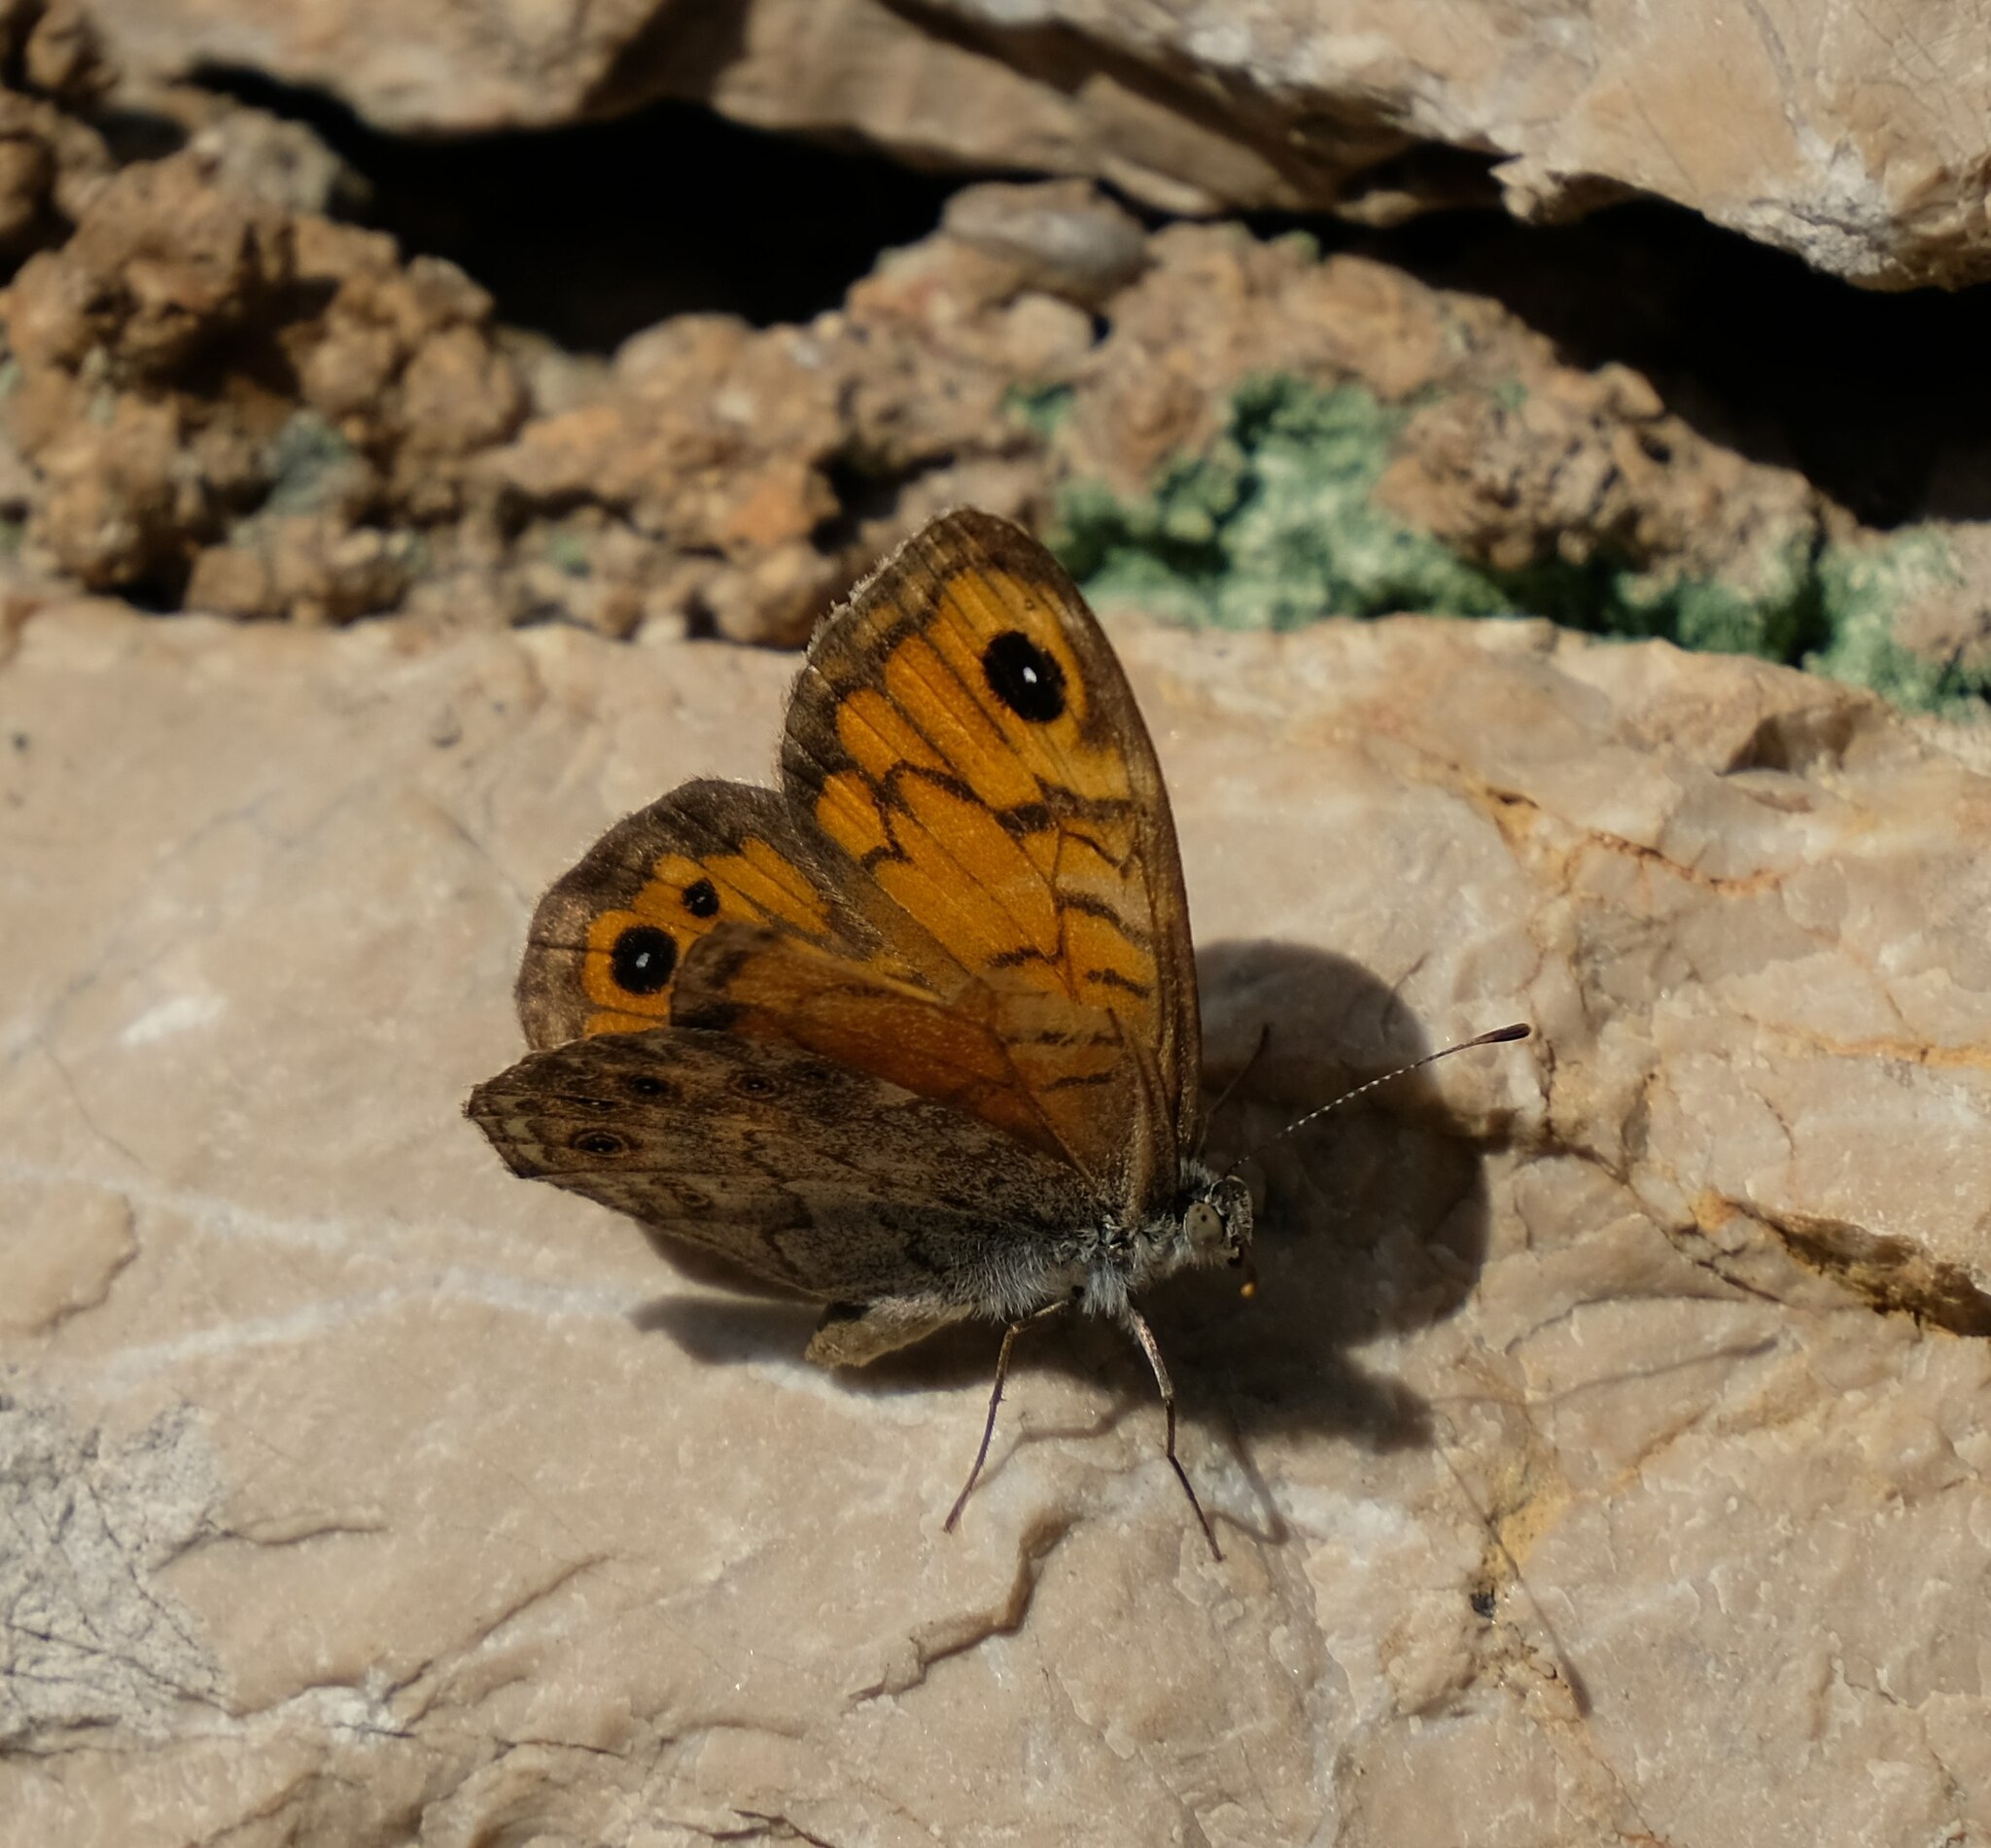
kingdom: Animalia
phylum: Arthropoda
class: Insecta
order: Lepidoptera
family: Nymphalidae
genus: Pararge
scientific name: Pararge Lasiommata megera
